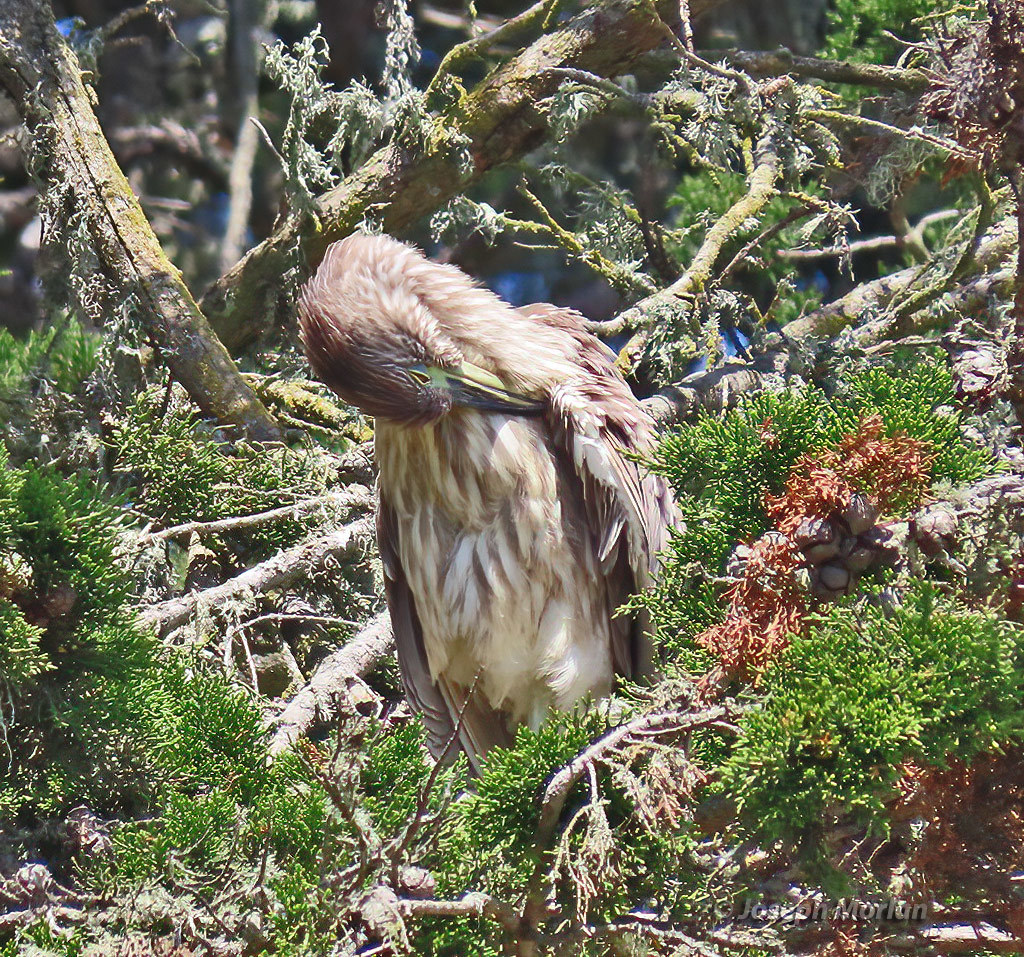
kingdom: Animalia
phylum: Chordata
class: Aves
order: Pelecaniformes
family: Ardeidae
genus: Nycticorax
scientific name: Nycticorax nycticorax
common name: Black-crowned night heron
